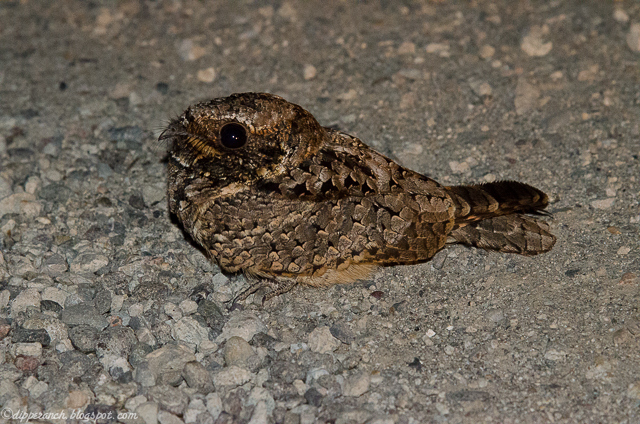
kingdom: Animalia
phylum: Chordata
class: Aves
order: Caprimulgiformes
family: Caprimulgidae
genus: Phalaenoptilus
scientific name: Phalaenoptilus nuttallii
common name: Common poorwill
